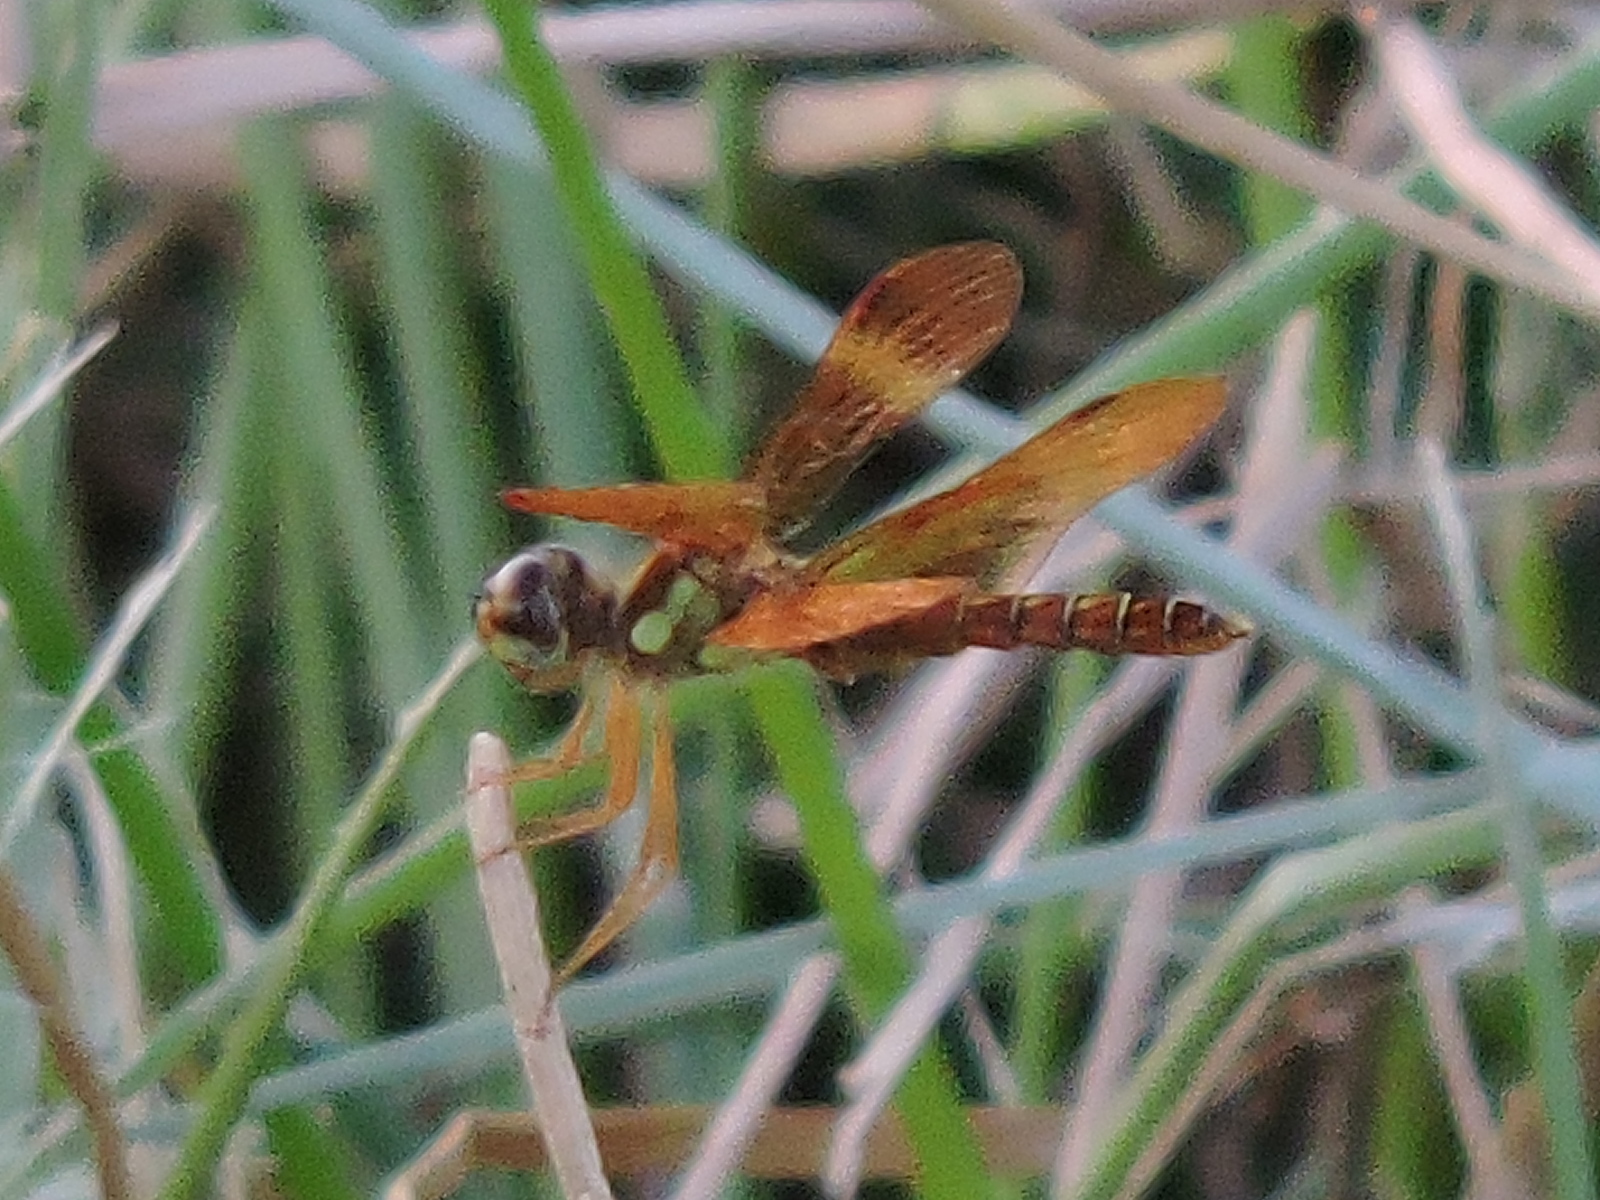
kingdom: Animalia
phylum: Arthropoda
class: Insecta
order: Odonata
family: Libellulidae
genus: Perithemis
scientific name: Perithemis tenera
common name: Eastern amberwing
